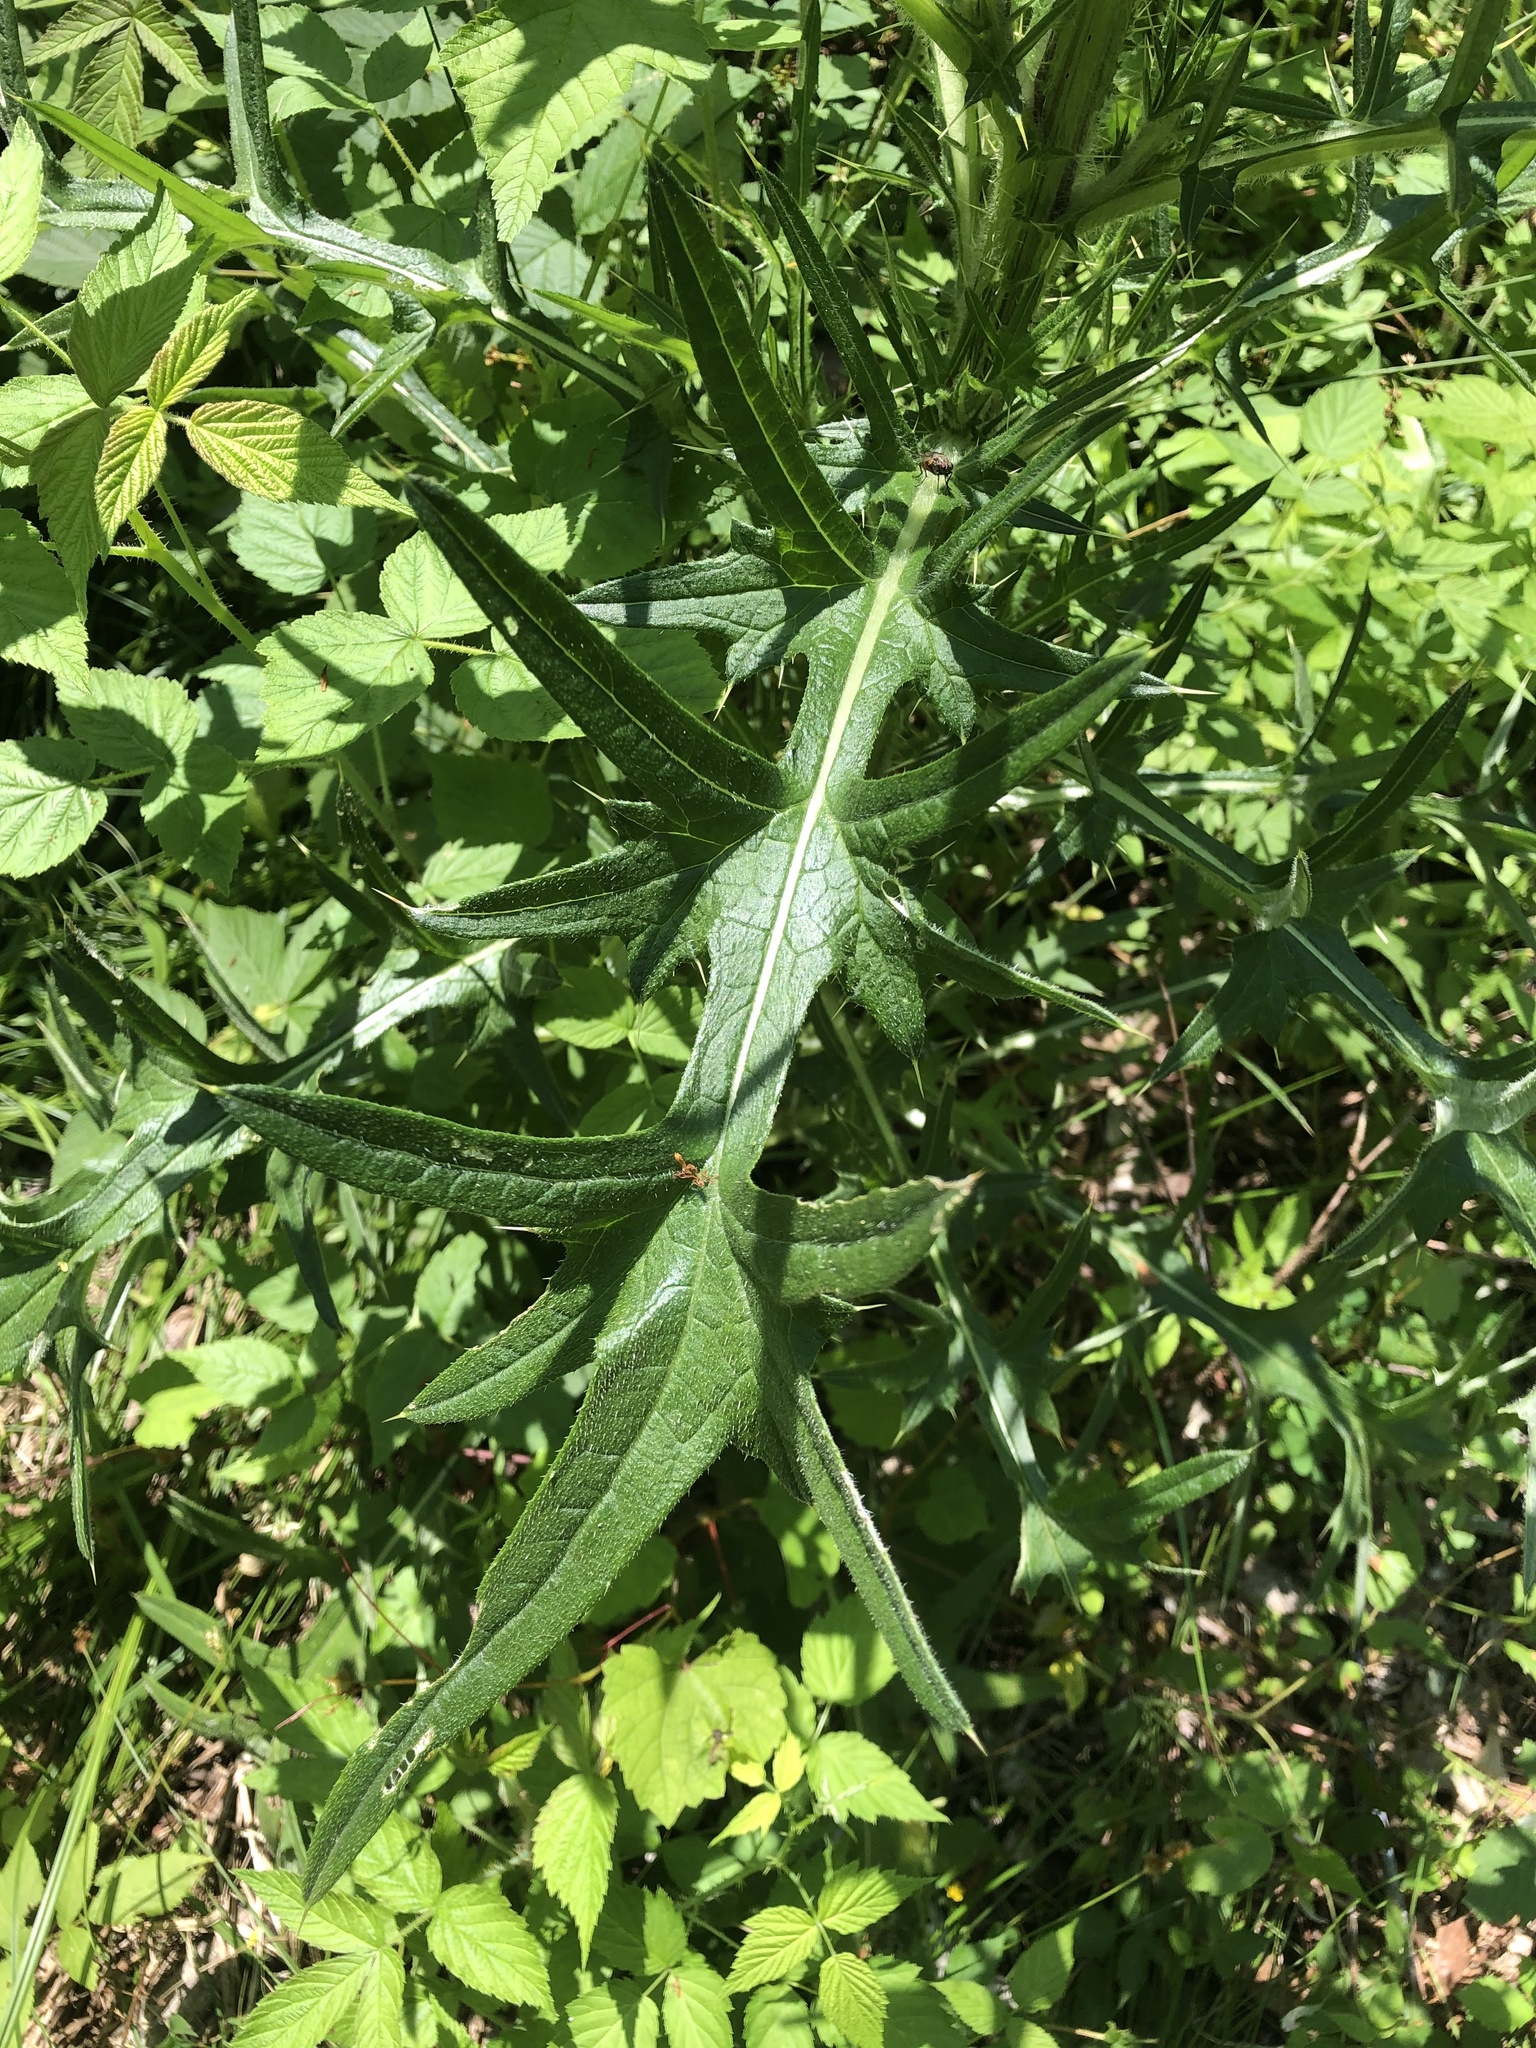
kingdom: Plantae
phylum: Tracheophyta
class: Magnoliopsida
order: Asterales
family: Asteraceae
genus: Cirsium
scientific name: Cirsium vulgare
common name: Bull thistle
